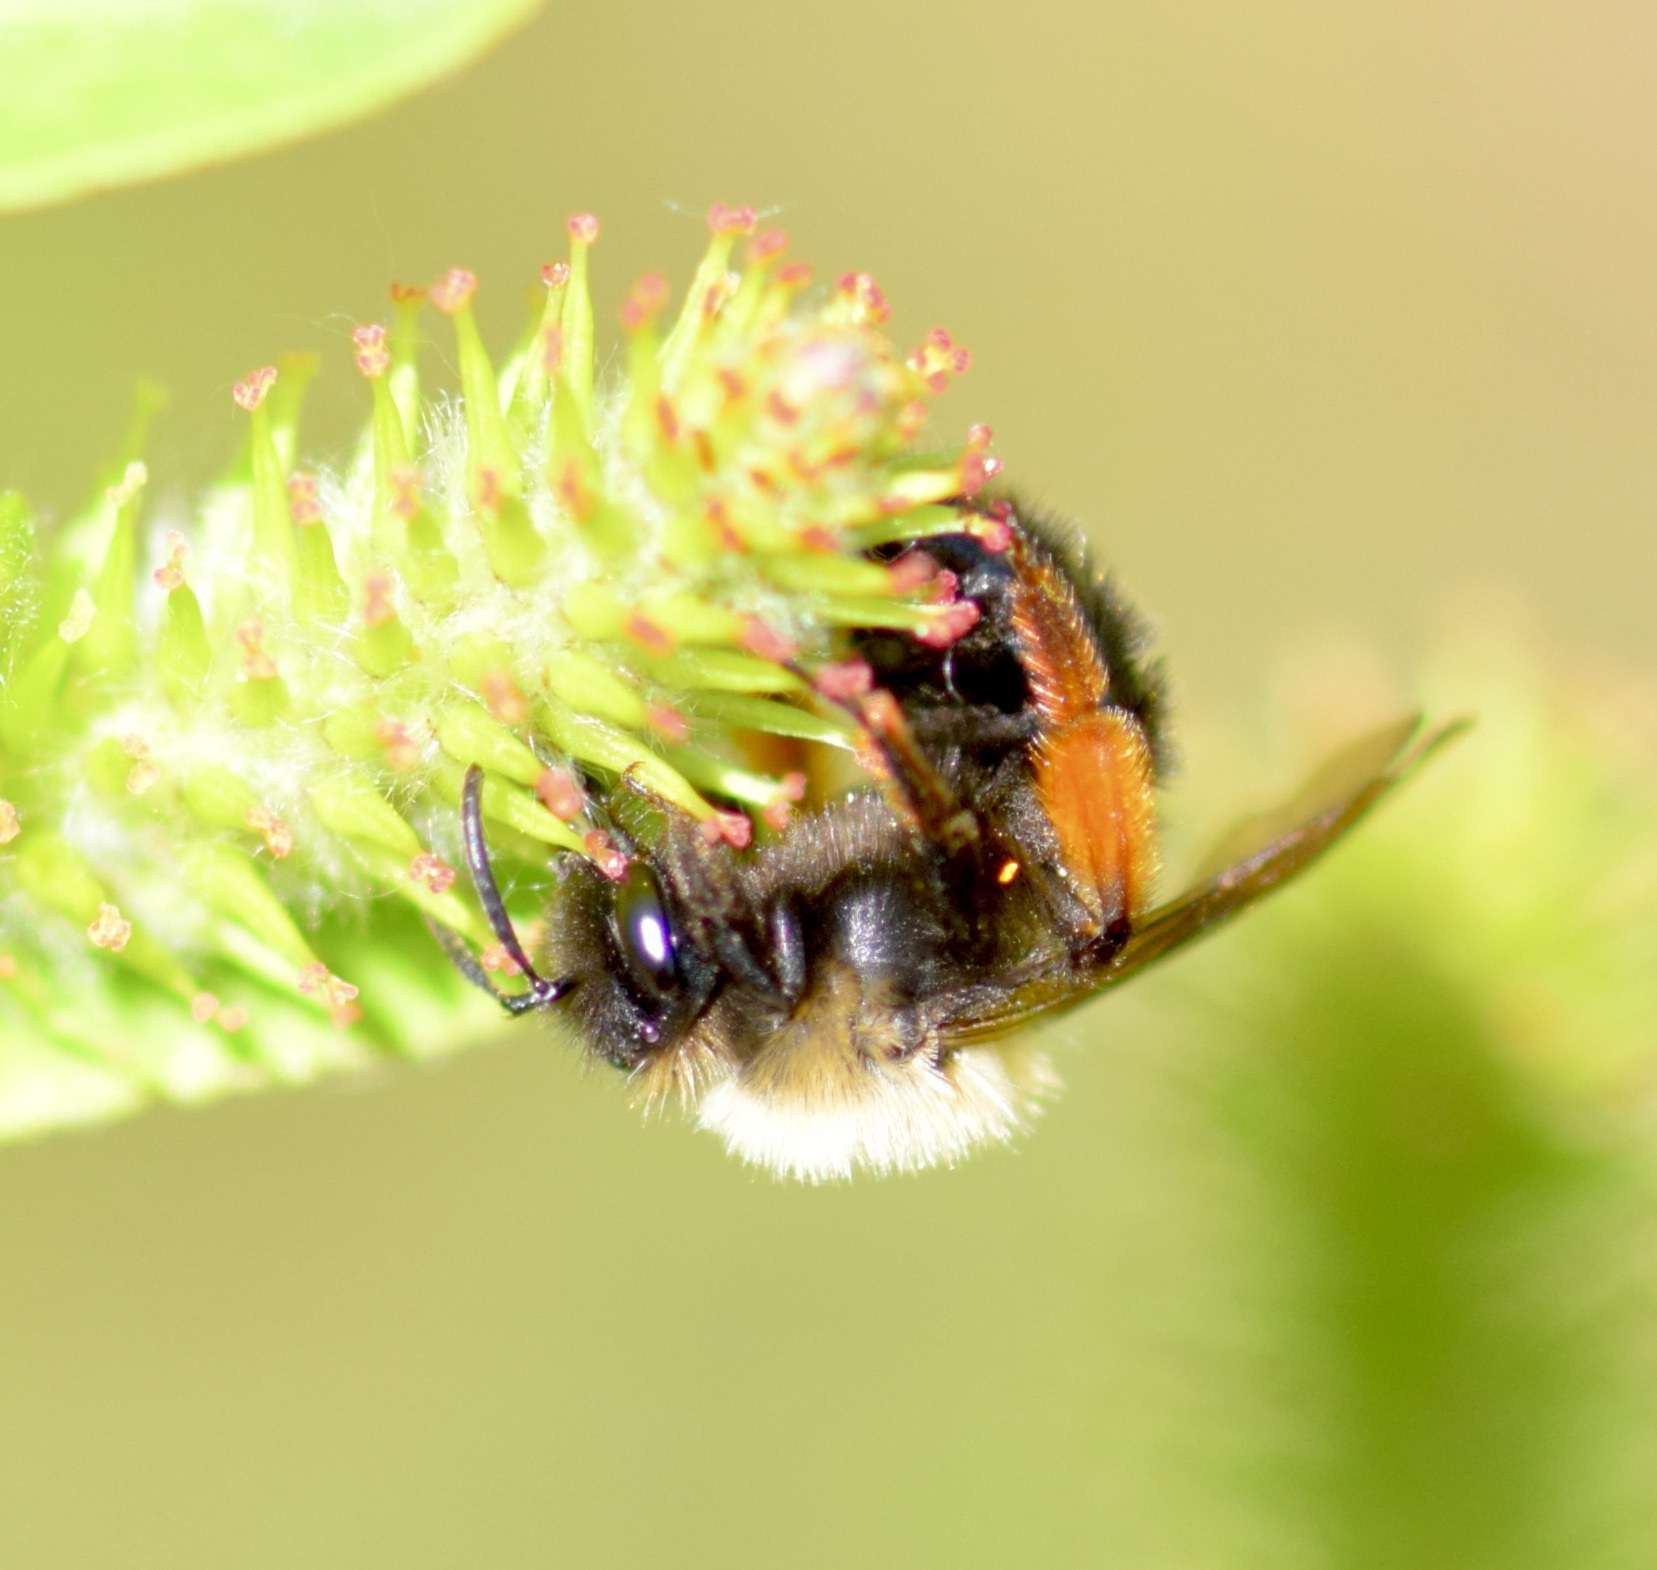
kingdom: Animalia
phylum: Arthropoda
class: Insecta
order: Hymenoptera
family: Andrenidae
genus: Andrena
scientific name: Andrena clarkella
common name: Clarke's mining bee
